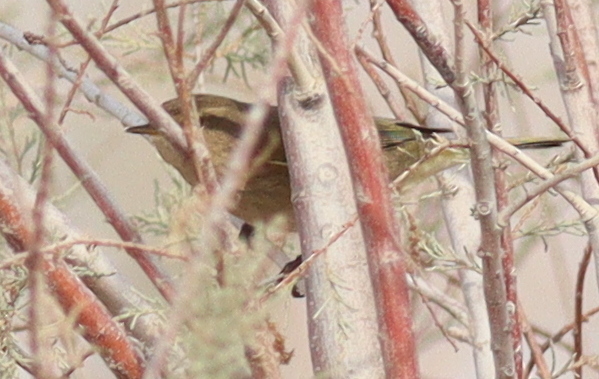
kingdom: Animalia
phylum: Chordata
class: Aves
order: Passeriformes
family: Phylloscopidae
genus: Phylloscopus
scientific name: Phylloscopus collybita
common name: Common chiffchaff
